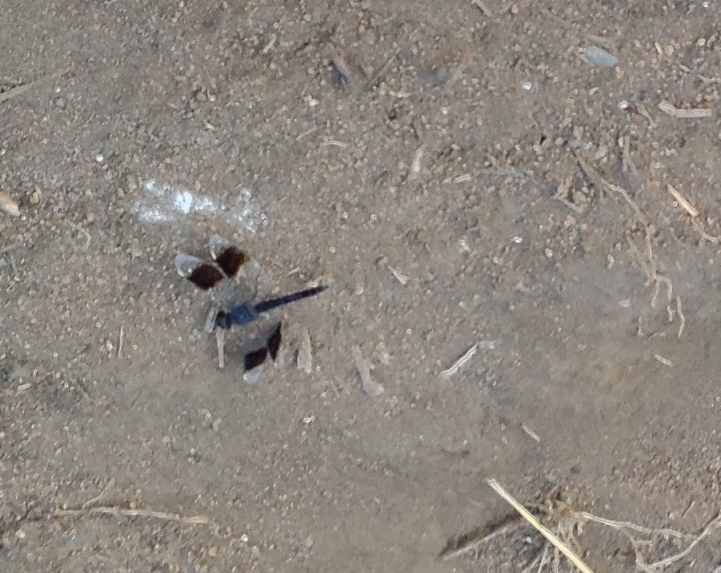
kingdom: Animalia
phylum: Arthropoda
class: Insecta
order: Odonata
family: Libellulidae
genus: Brachythemis
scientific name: Brachythemis leucosticta
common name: Banded groundling
